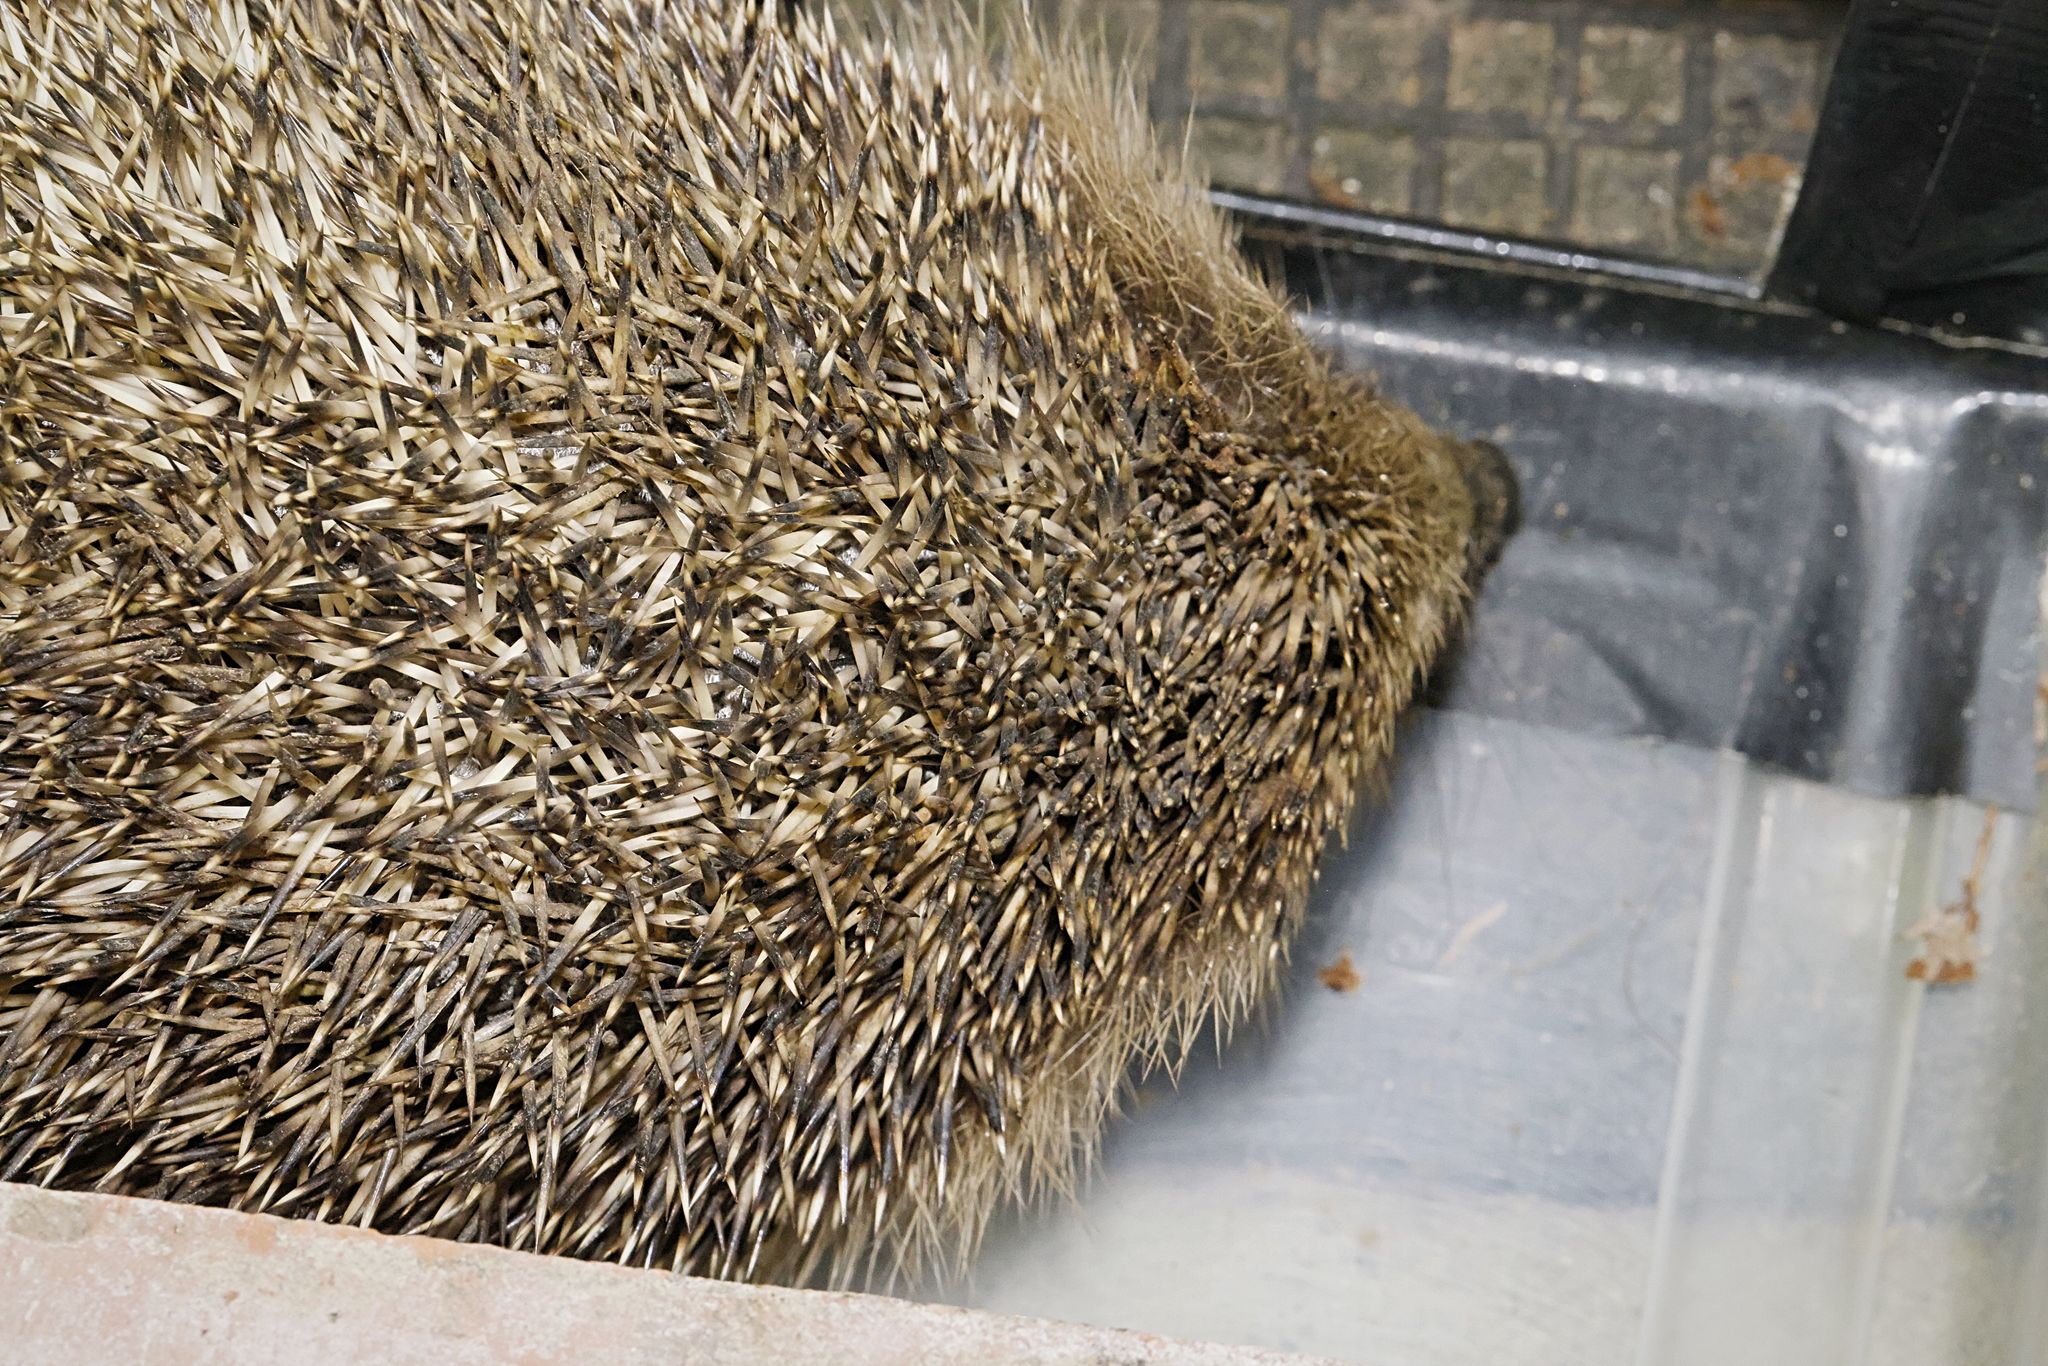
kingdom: Animalia
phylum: Chordata
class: Mammalia
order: Erinaceomorpha
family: Erinaceidae
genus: Erinaceus
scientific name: Erinaceus europaeus
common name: West european hedgehog
